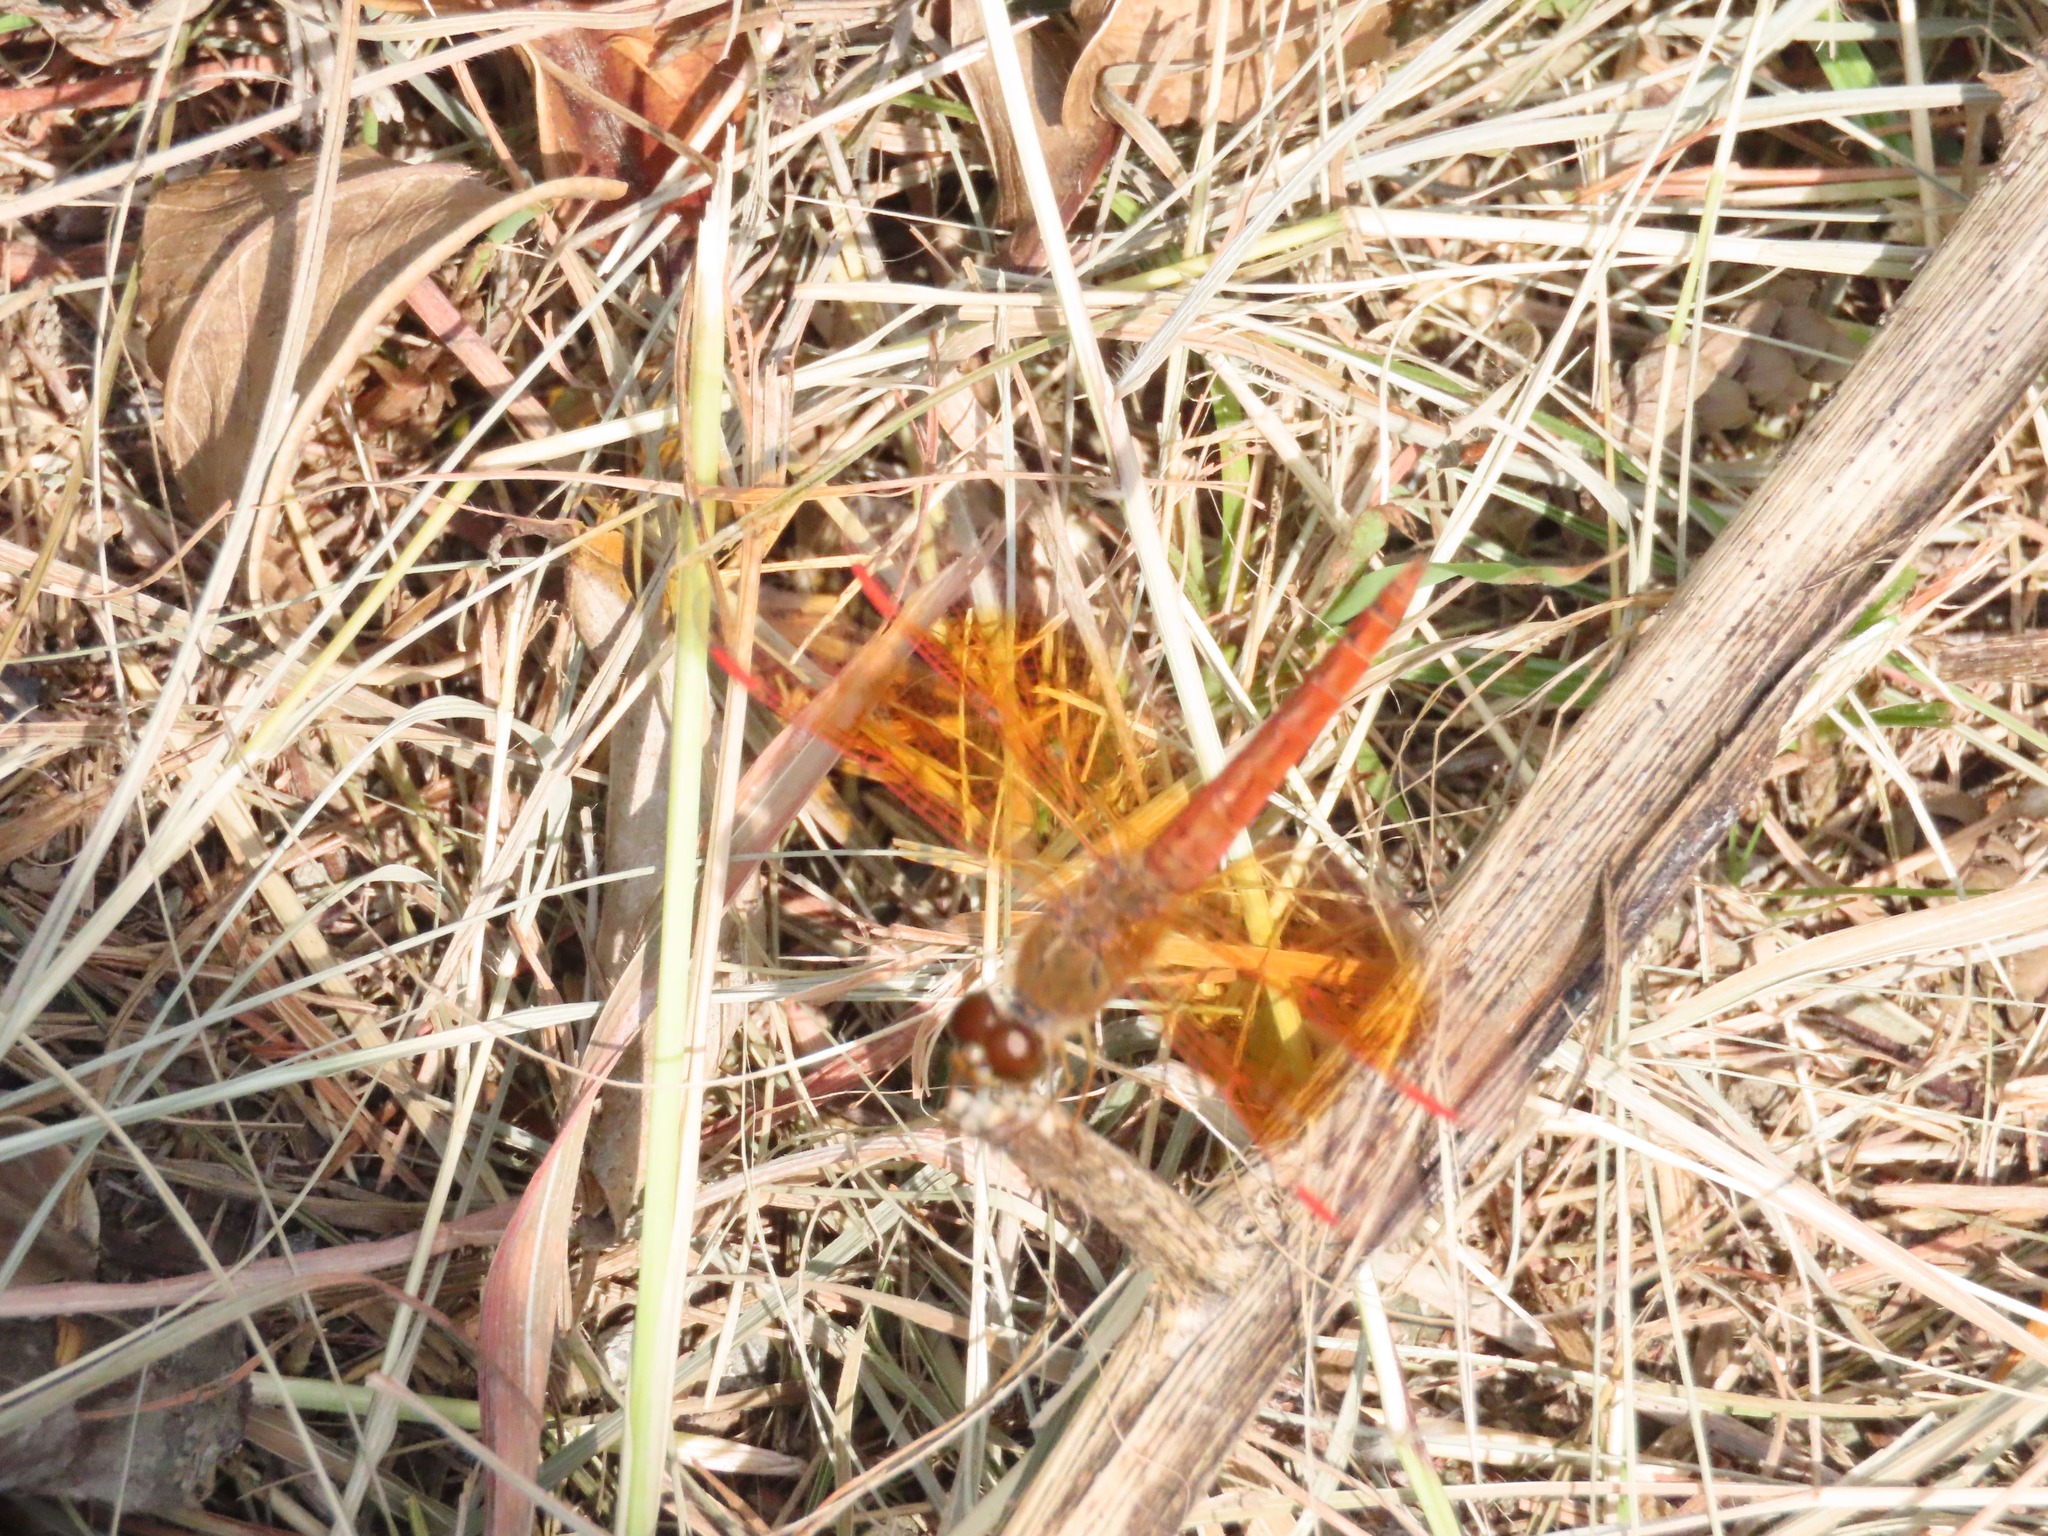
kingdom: Animalia
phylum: Arthropoda
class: Insecta
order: Odonata
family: Libellulidae
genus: Brachythemis
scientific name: Brachythemis contaminata
